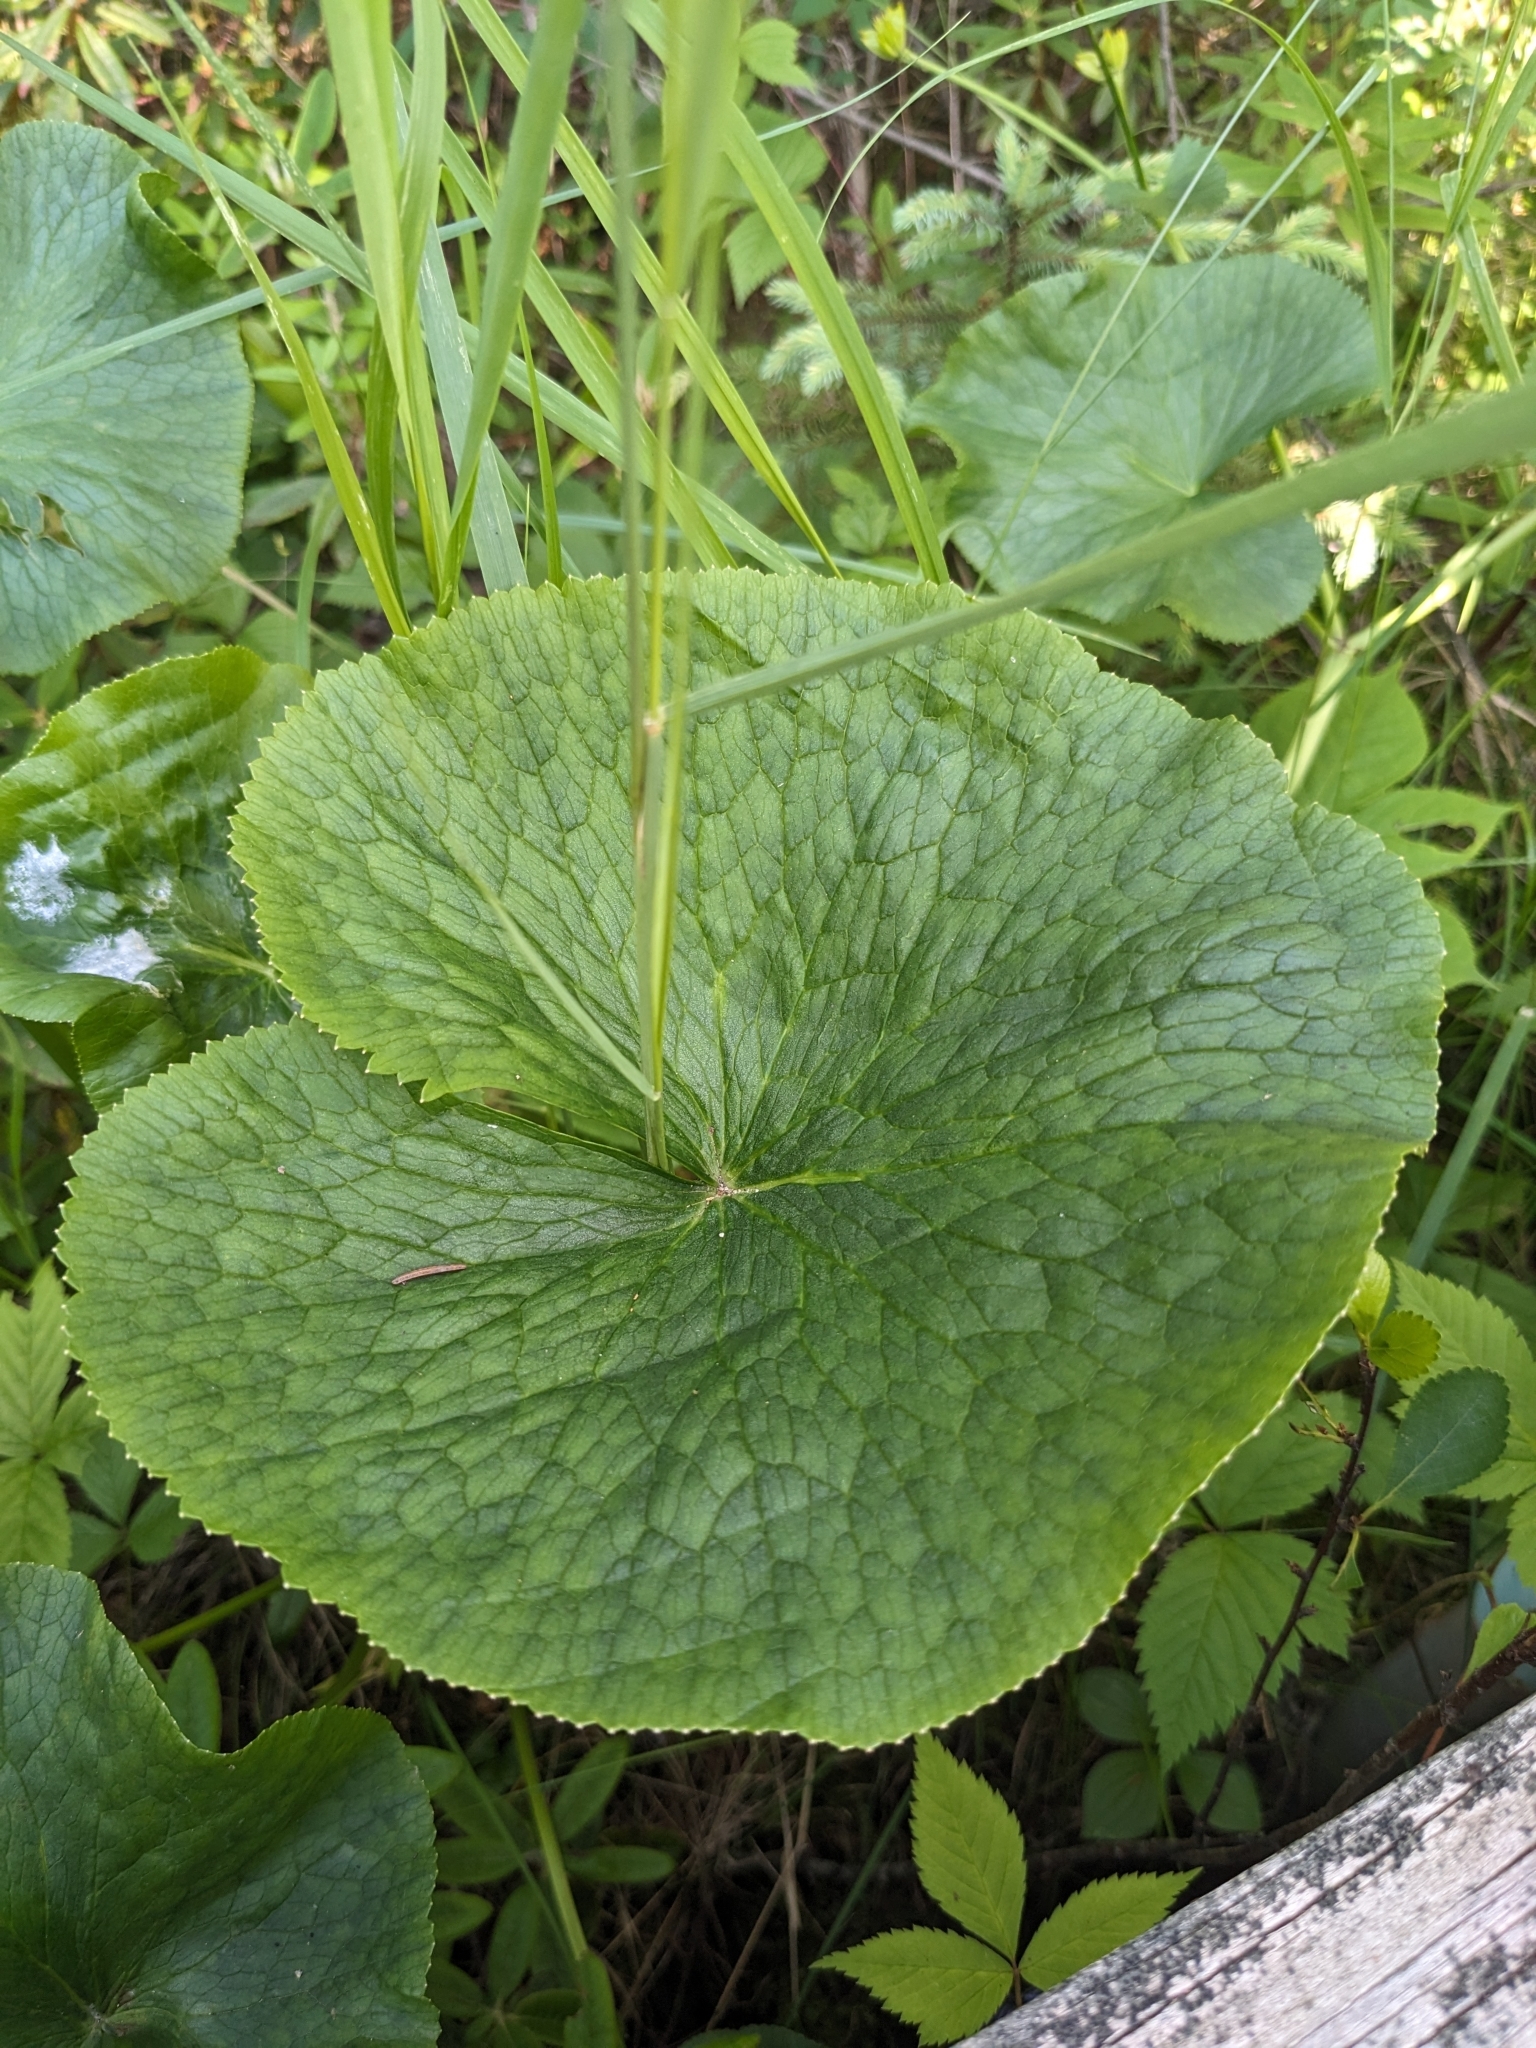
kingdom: Plantae
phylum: Tracheophyta
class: Magnoliopsida
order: Ranunculales
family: Ranunculaceae
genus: Caltha
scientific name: Caltha palustris
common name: Marsh marigold
